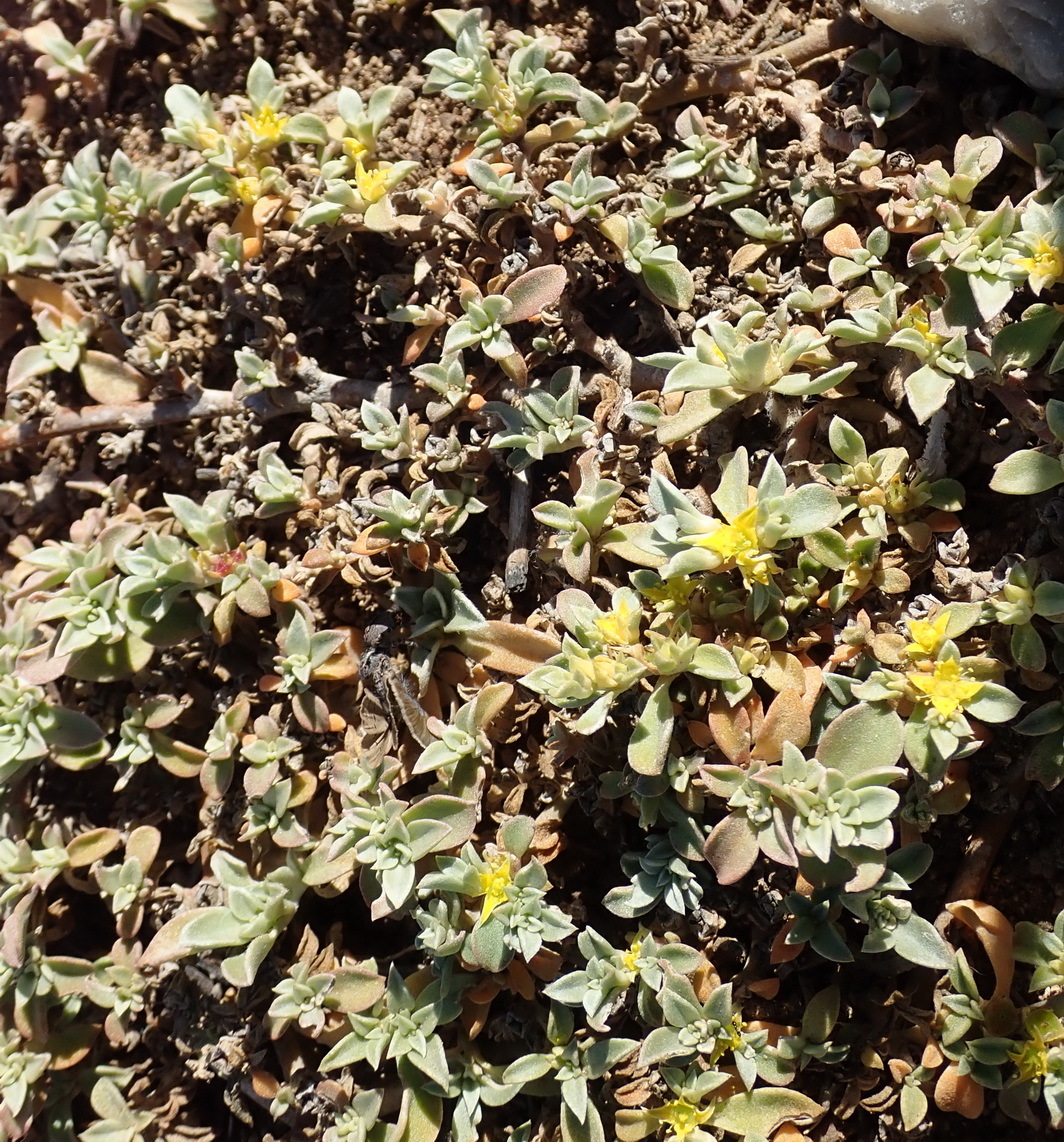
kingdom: Plantae
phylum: Tracheophyta
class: Magnoliopsida
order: Caryophyllales
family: Aizoaceae
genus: Aizoon
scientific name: Aizoon rigidum
